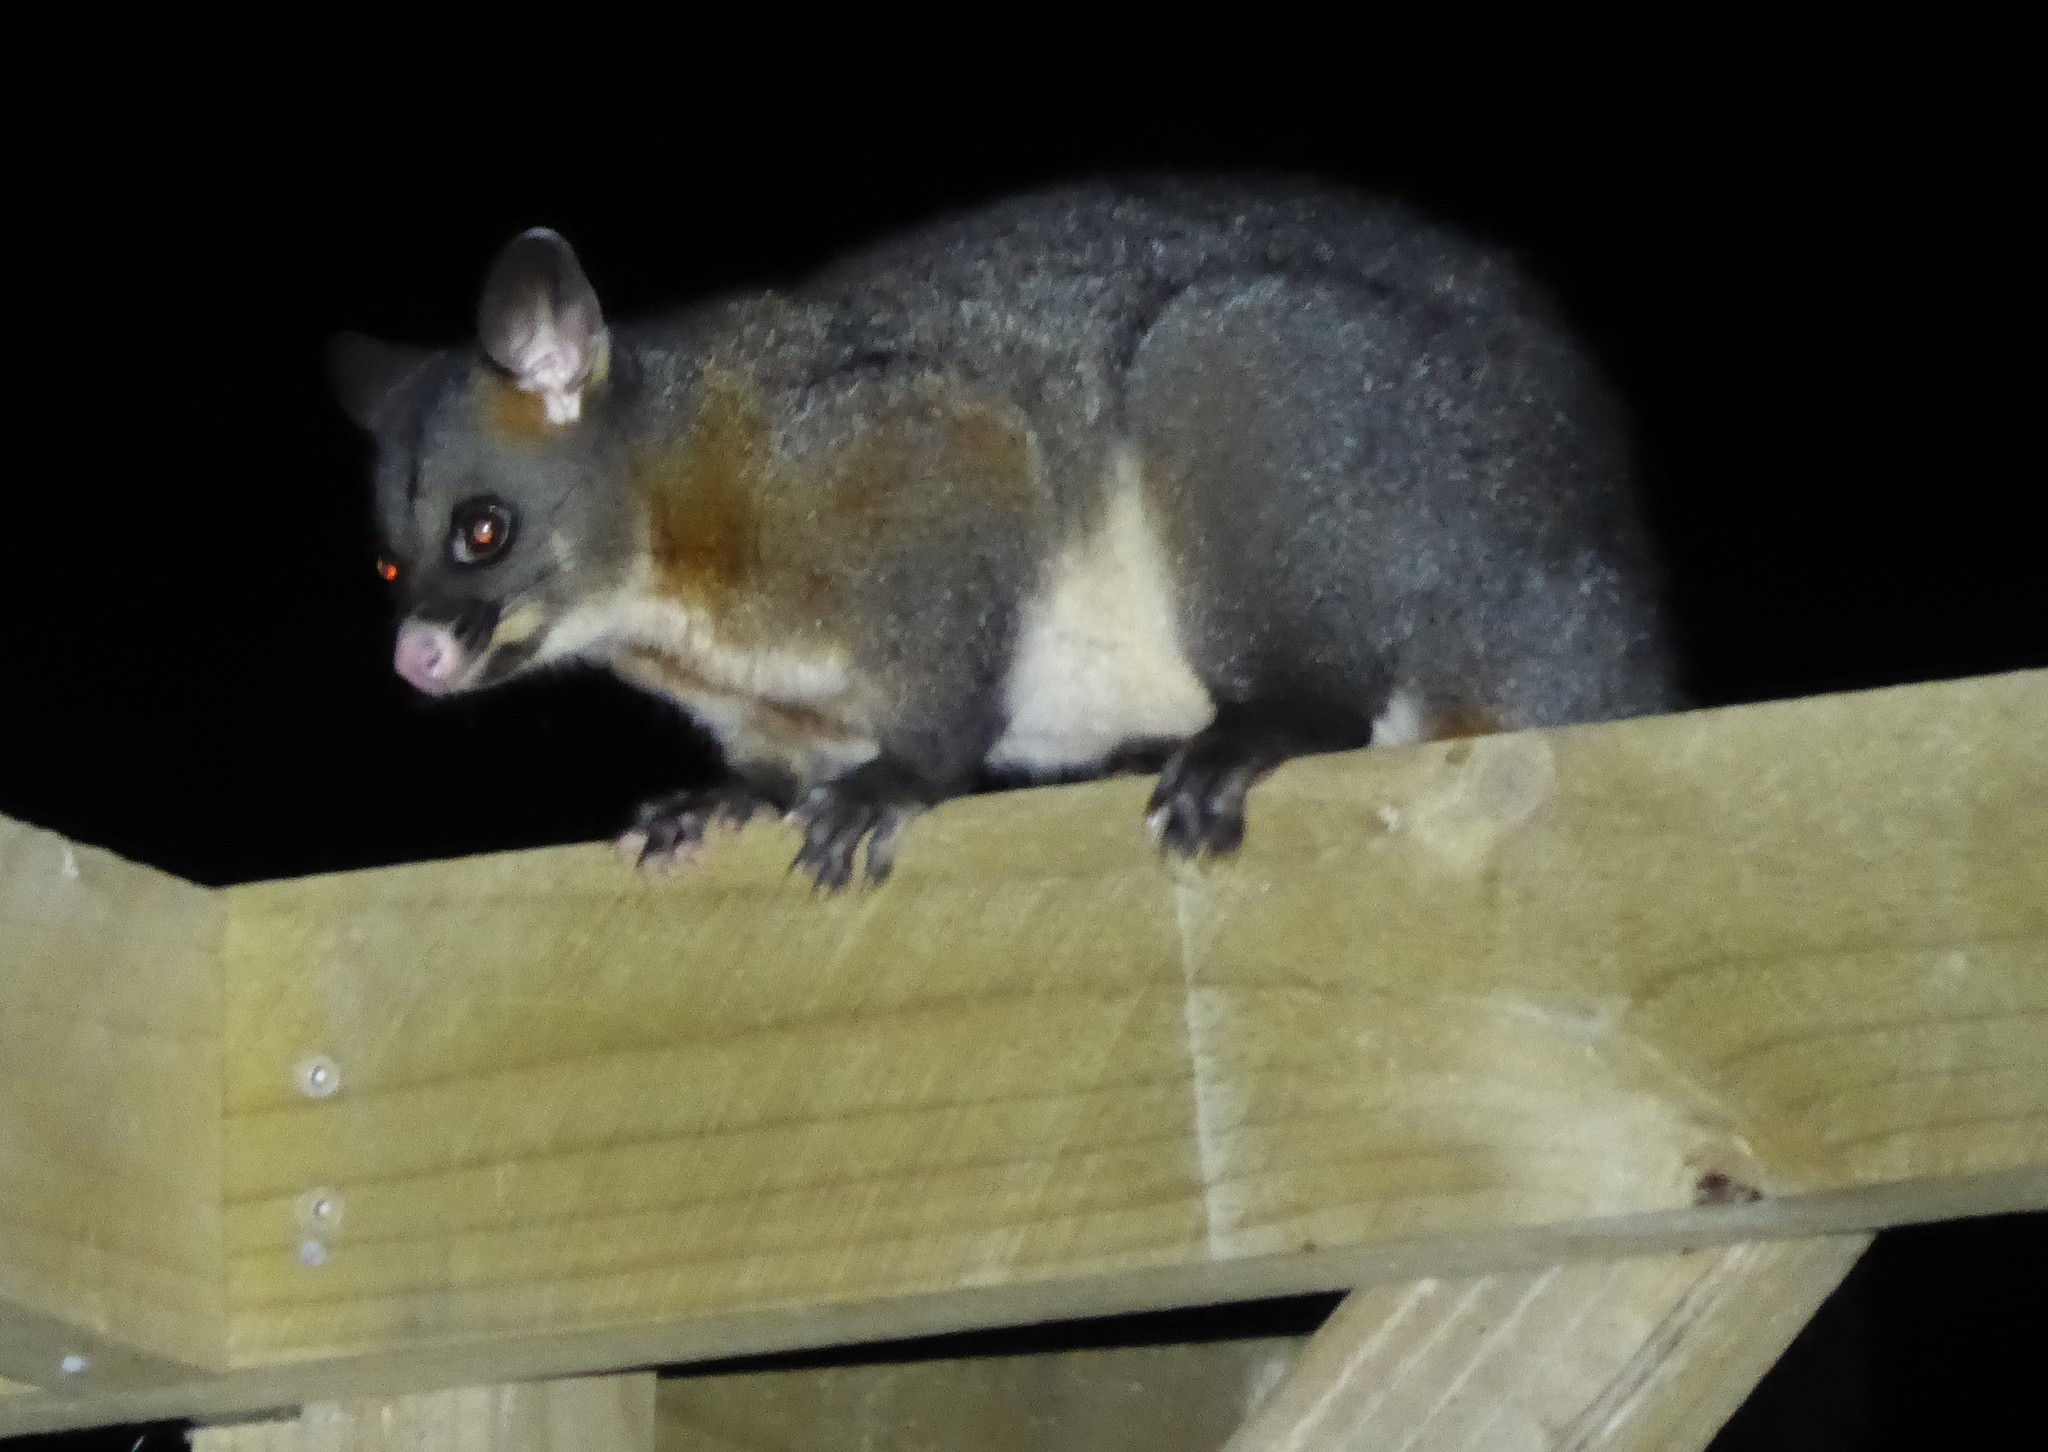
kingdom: Animalia
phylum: Chordata
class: Mammalia
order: Diprotodontia
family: Phalangeridae
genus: Trichosurus
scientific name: Trichosurus vulpecula
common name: Common brushtail
